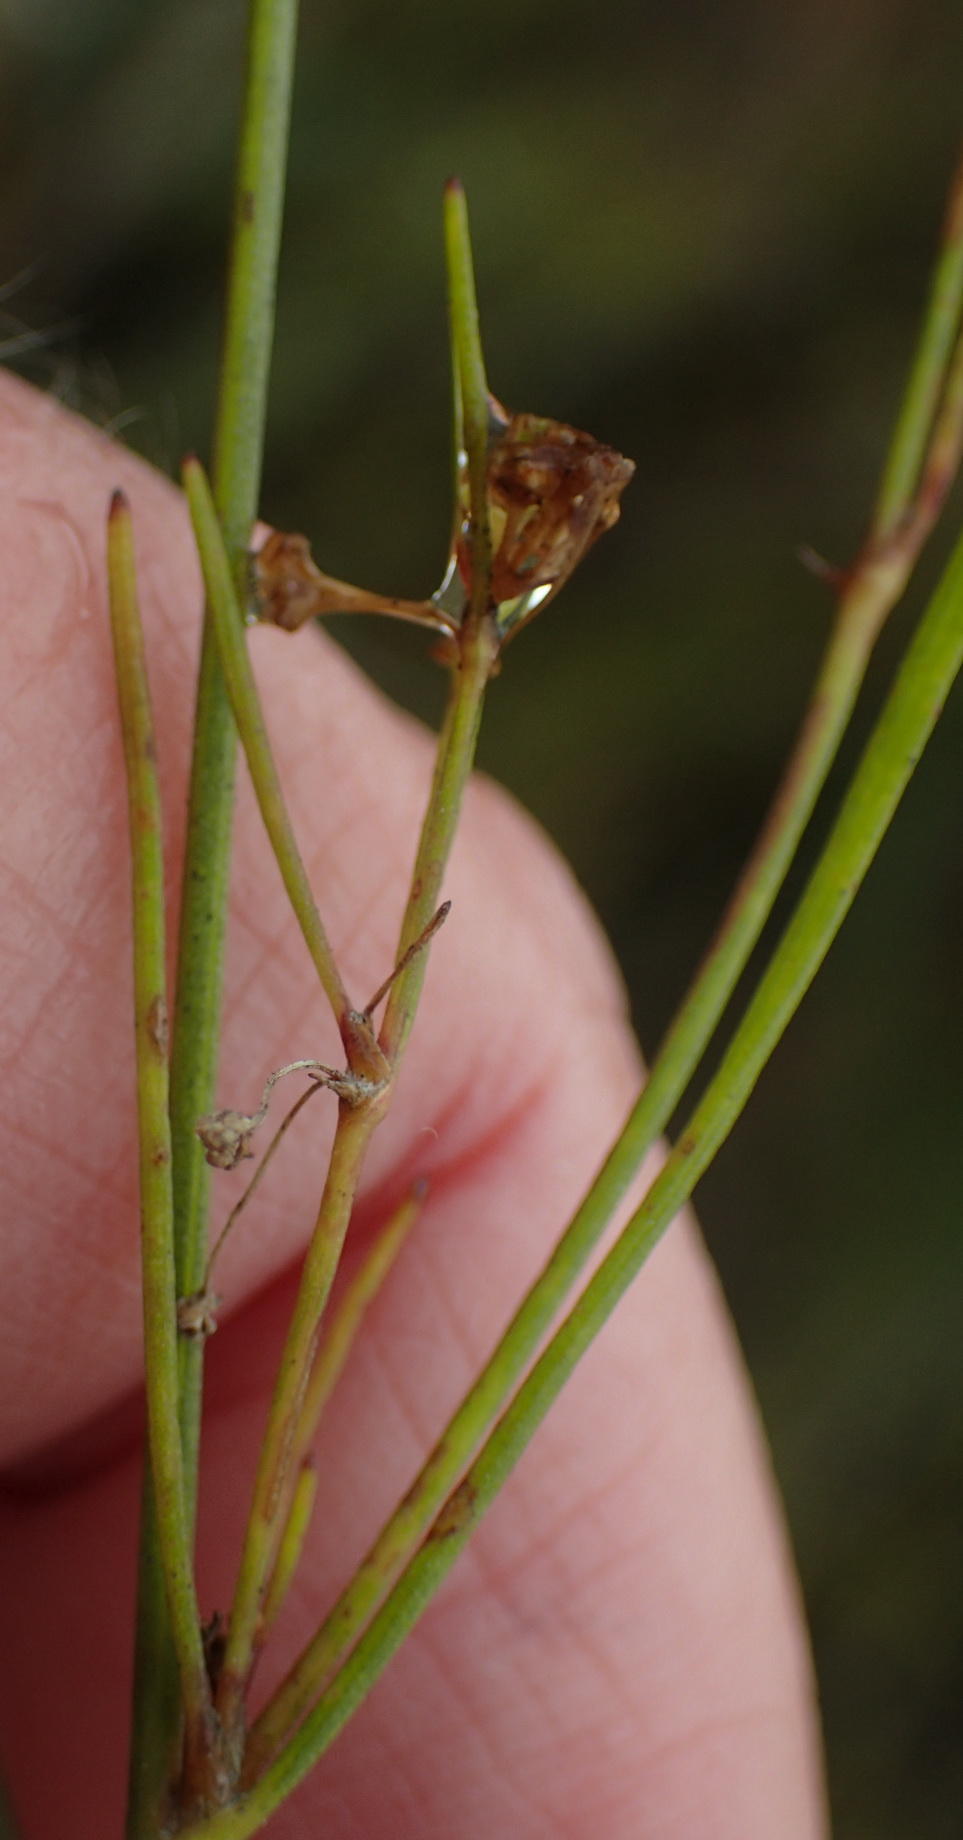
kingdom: Plantae
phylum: Tracheophyta
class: Magnoliopsida
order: Apiales
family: Apiaceae
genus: Centella
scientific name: Centella macrocarpa
